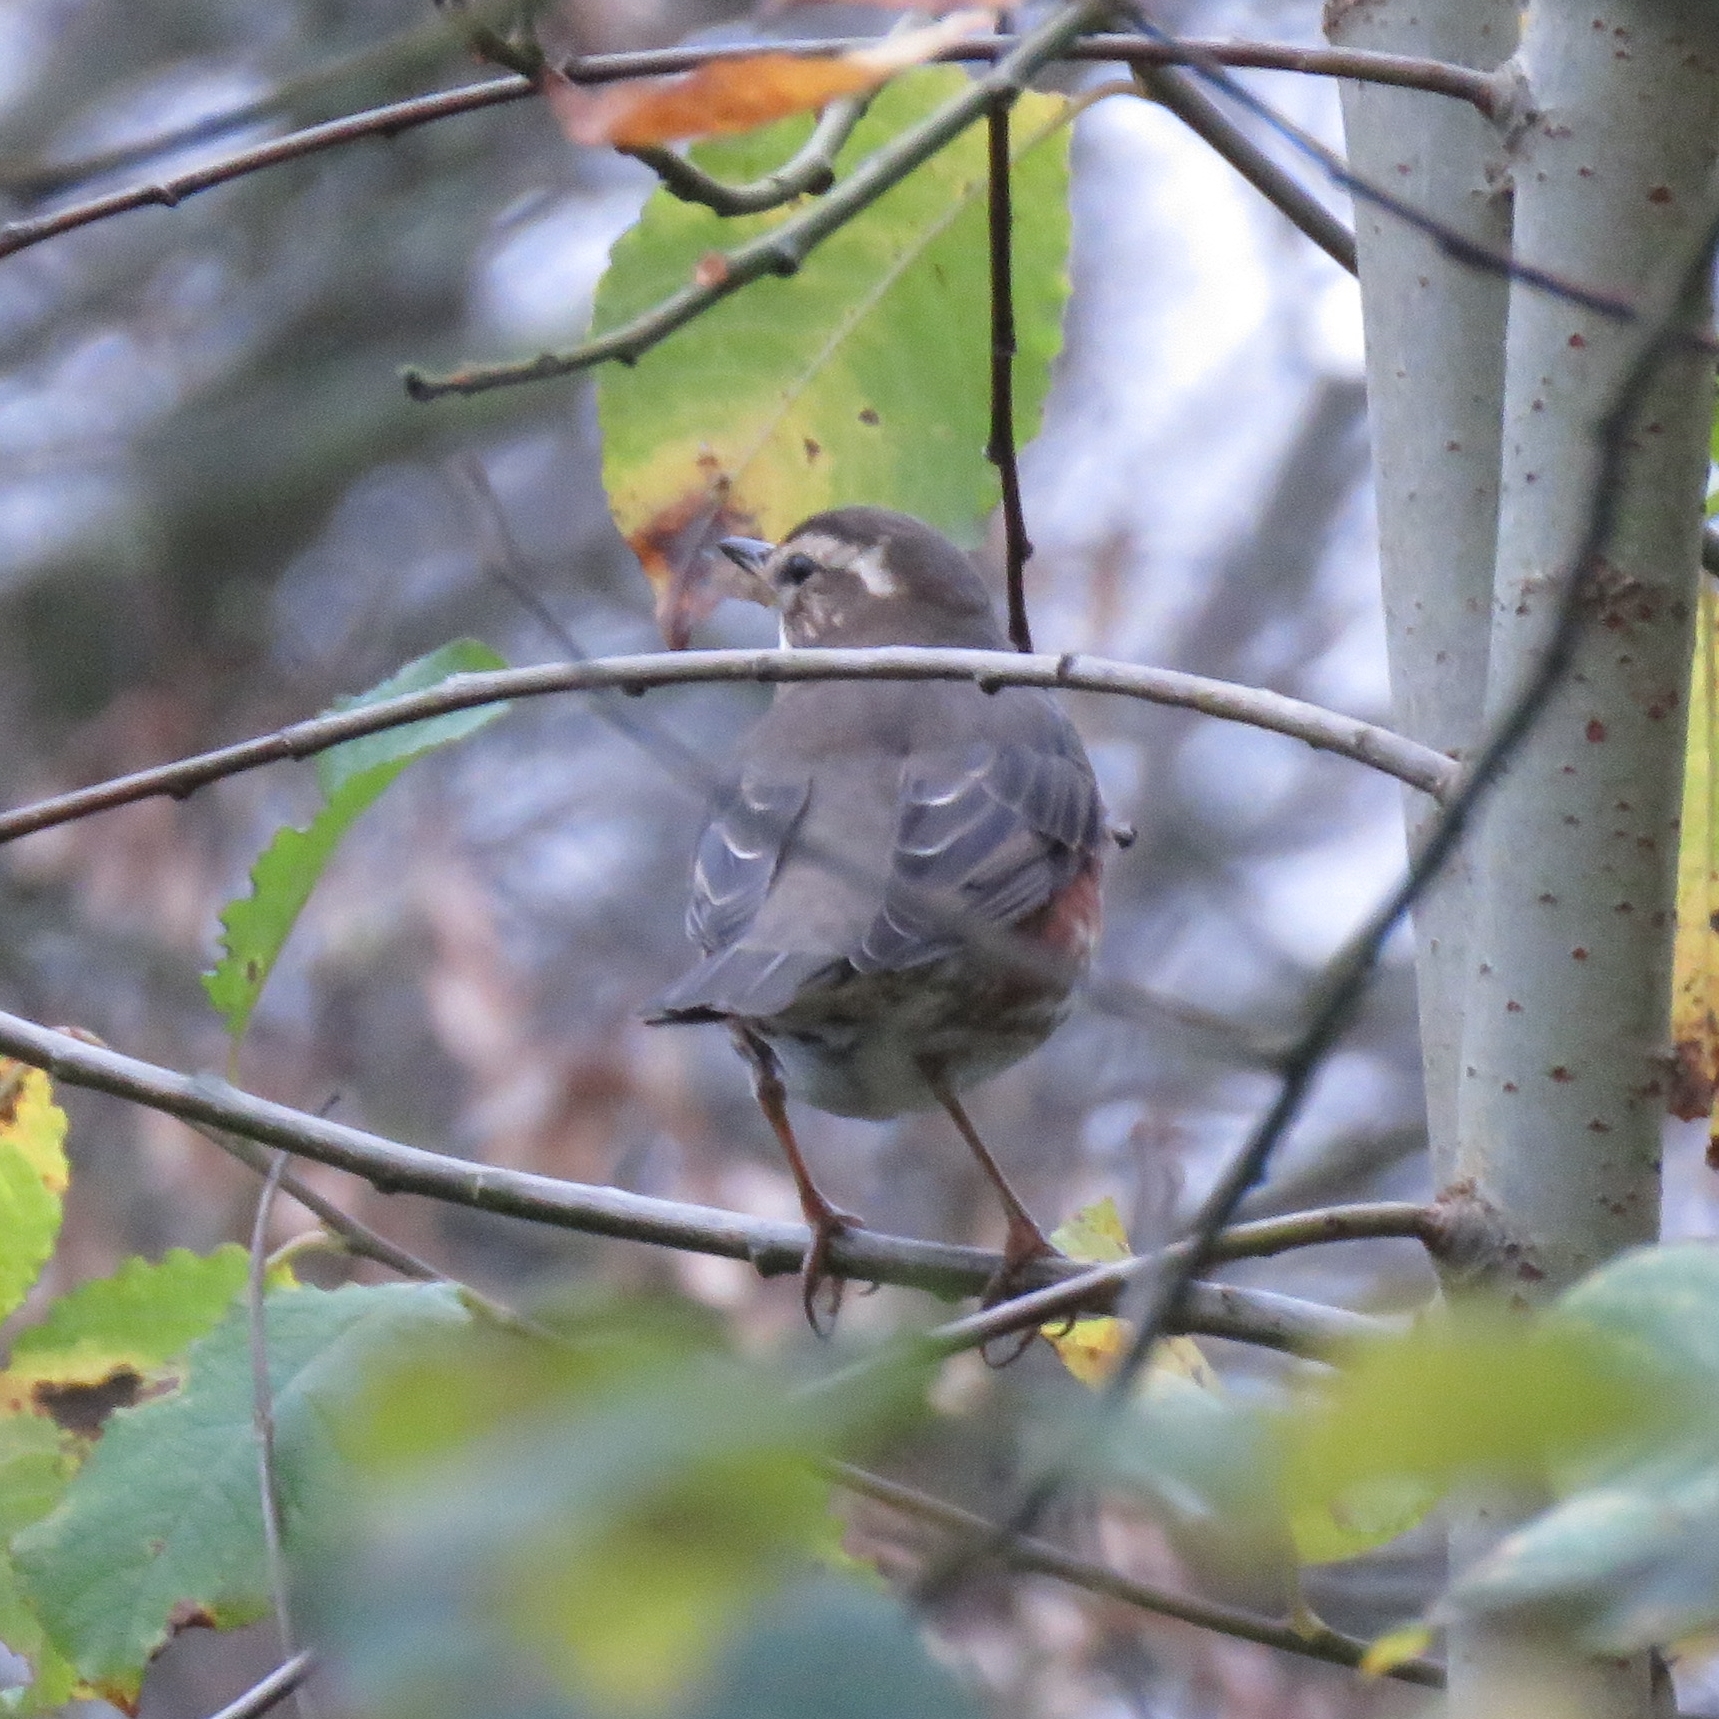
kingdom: Animalia
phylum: Chordata
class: Aves
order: Passeriformes
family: Turdidae
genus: Turdus
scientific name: Turdus iliacus
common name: Redwing
